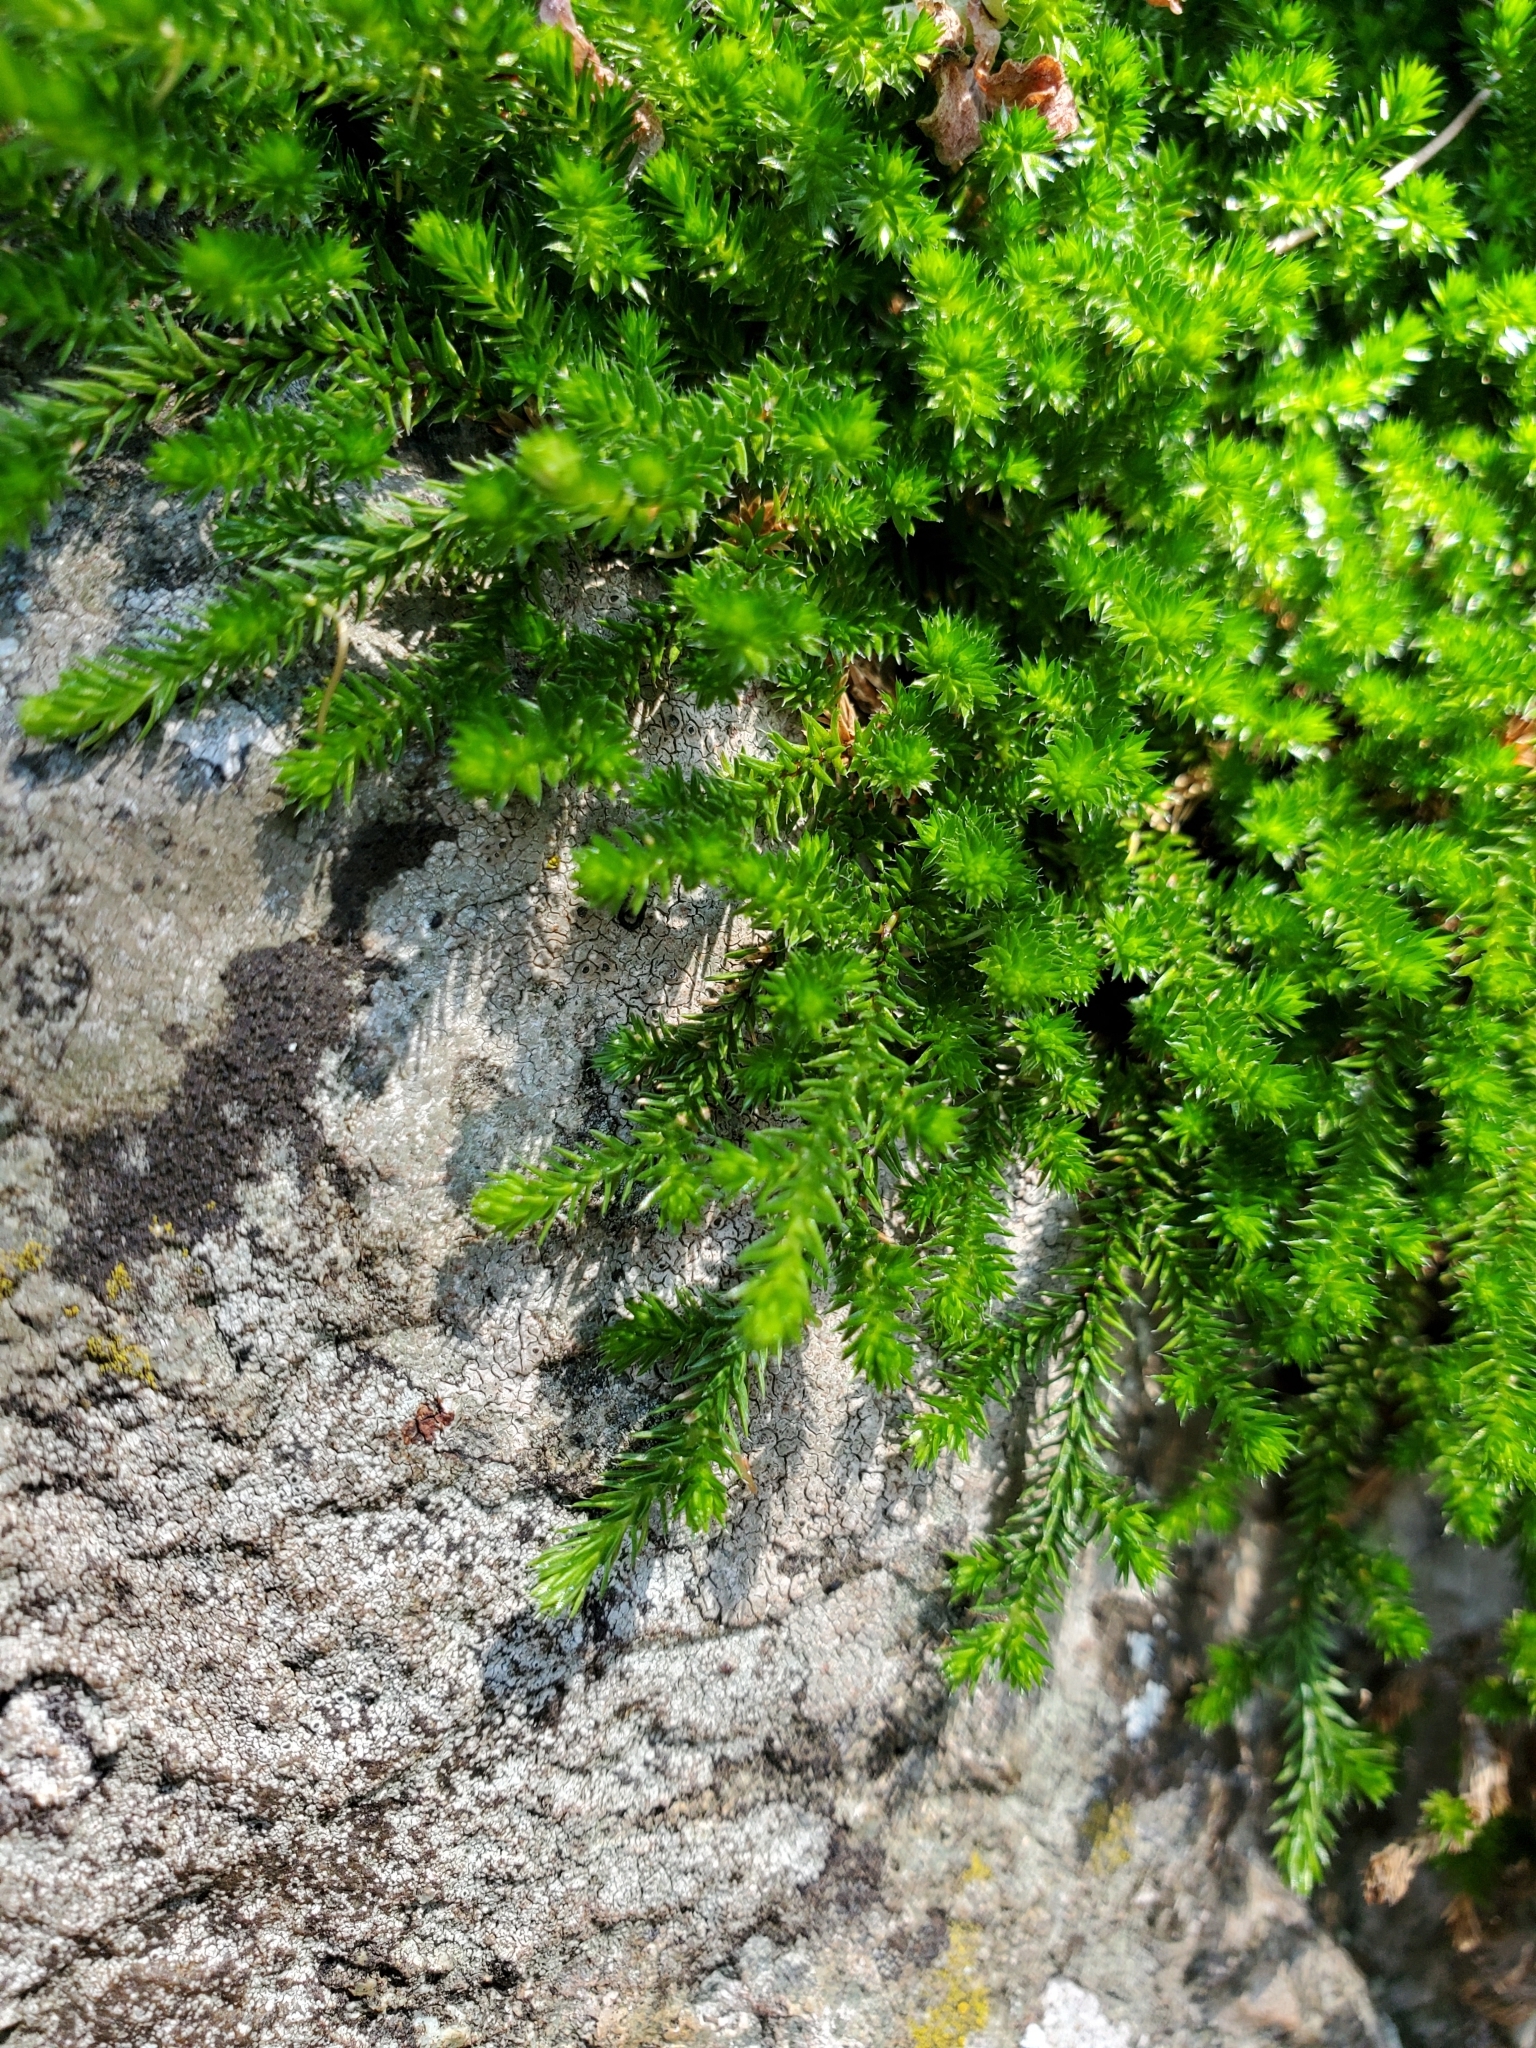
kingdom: Plantae
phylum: Tracheophyta
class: Lycopodiopsida
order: Selaginellales
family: Selaginellaceae
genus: Selaginella
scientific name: Selaginella wallacei
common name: Wallace's selaginella
